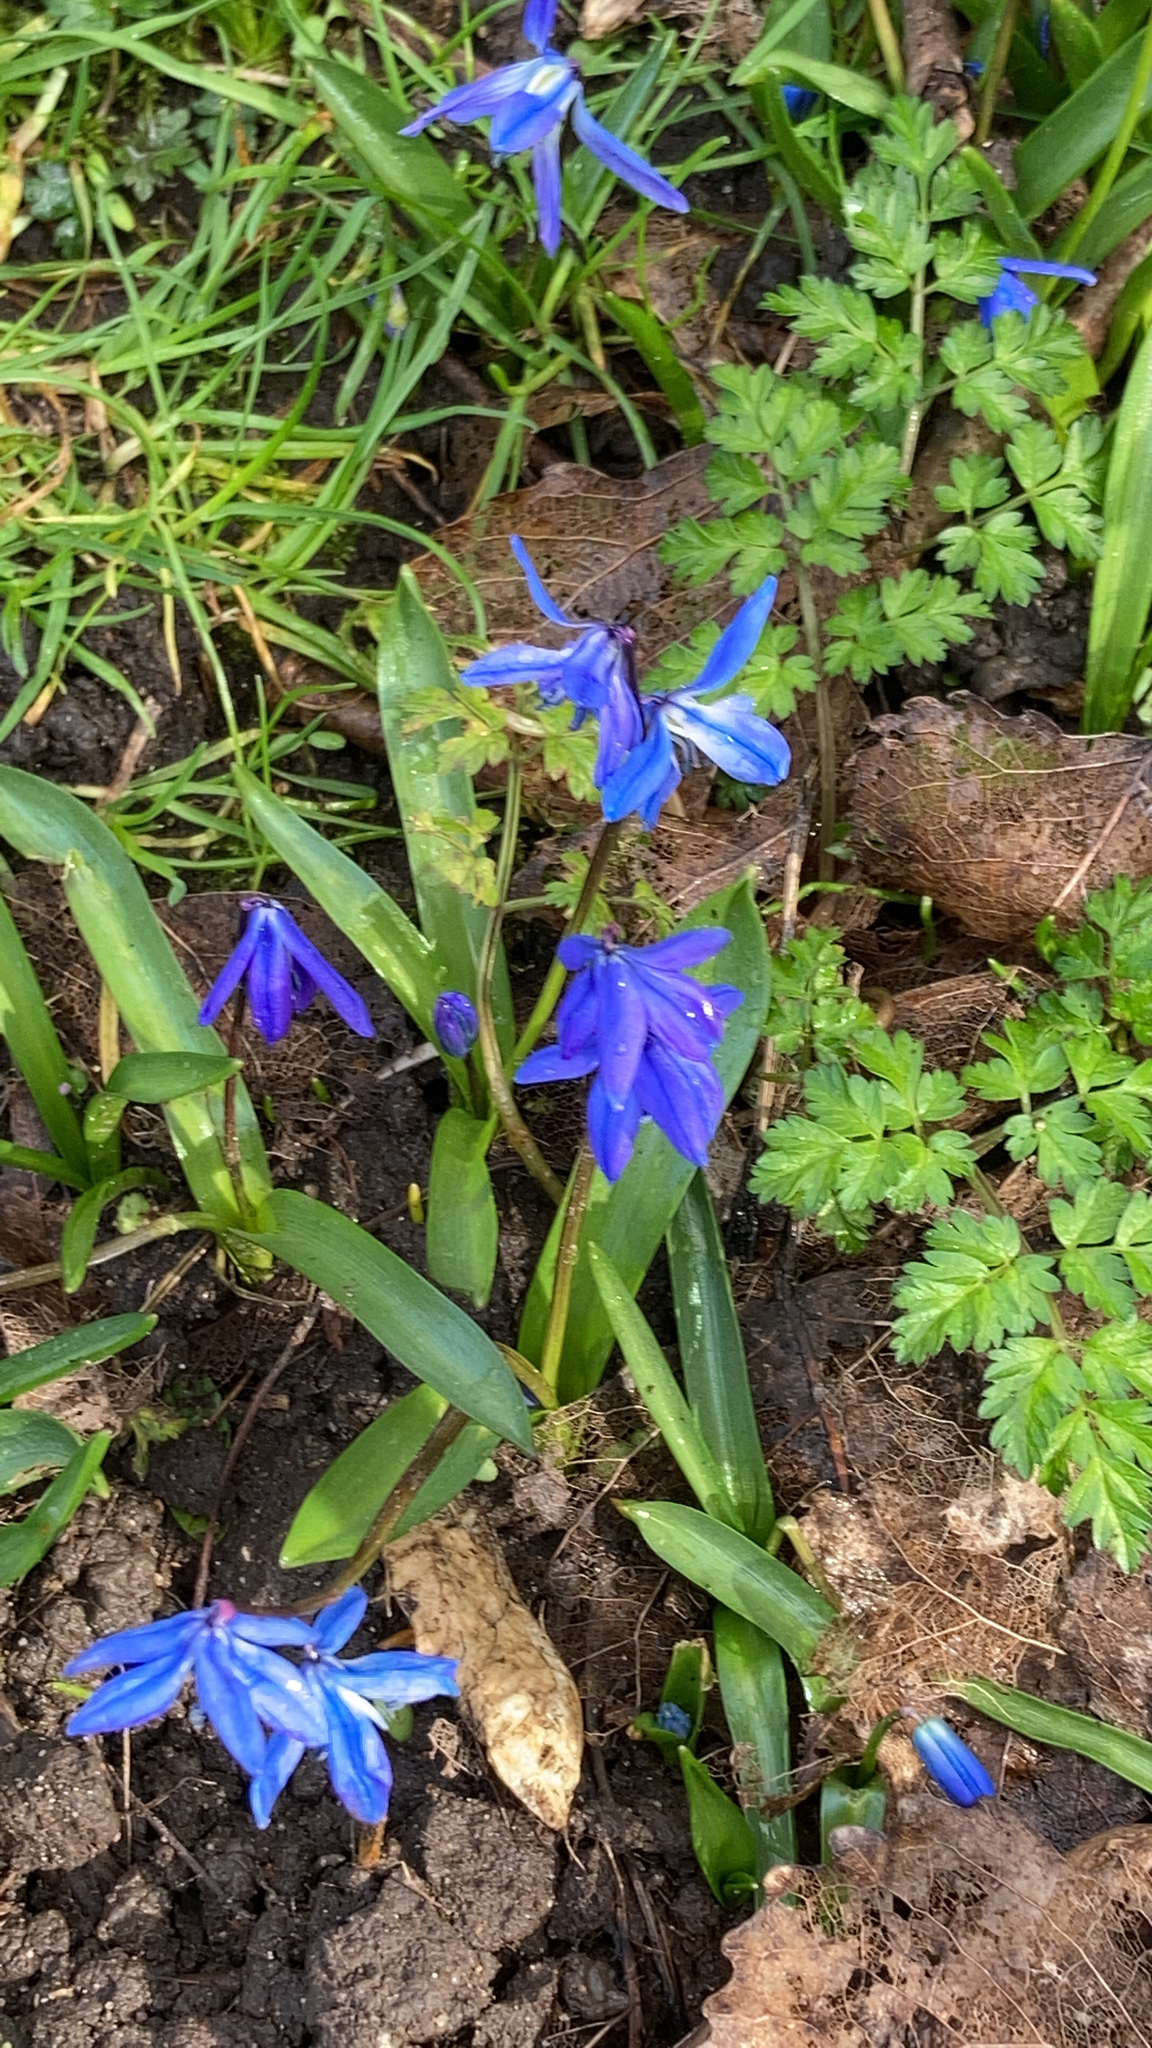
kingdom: Plantae
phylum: Tracheophyta
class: Liliopsida
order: Asparagales
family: Asparagaceae
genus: Scilla
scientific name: Scilla siberica
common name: Siberian squill
